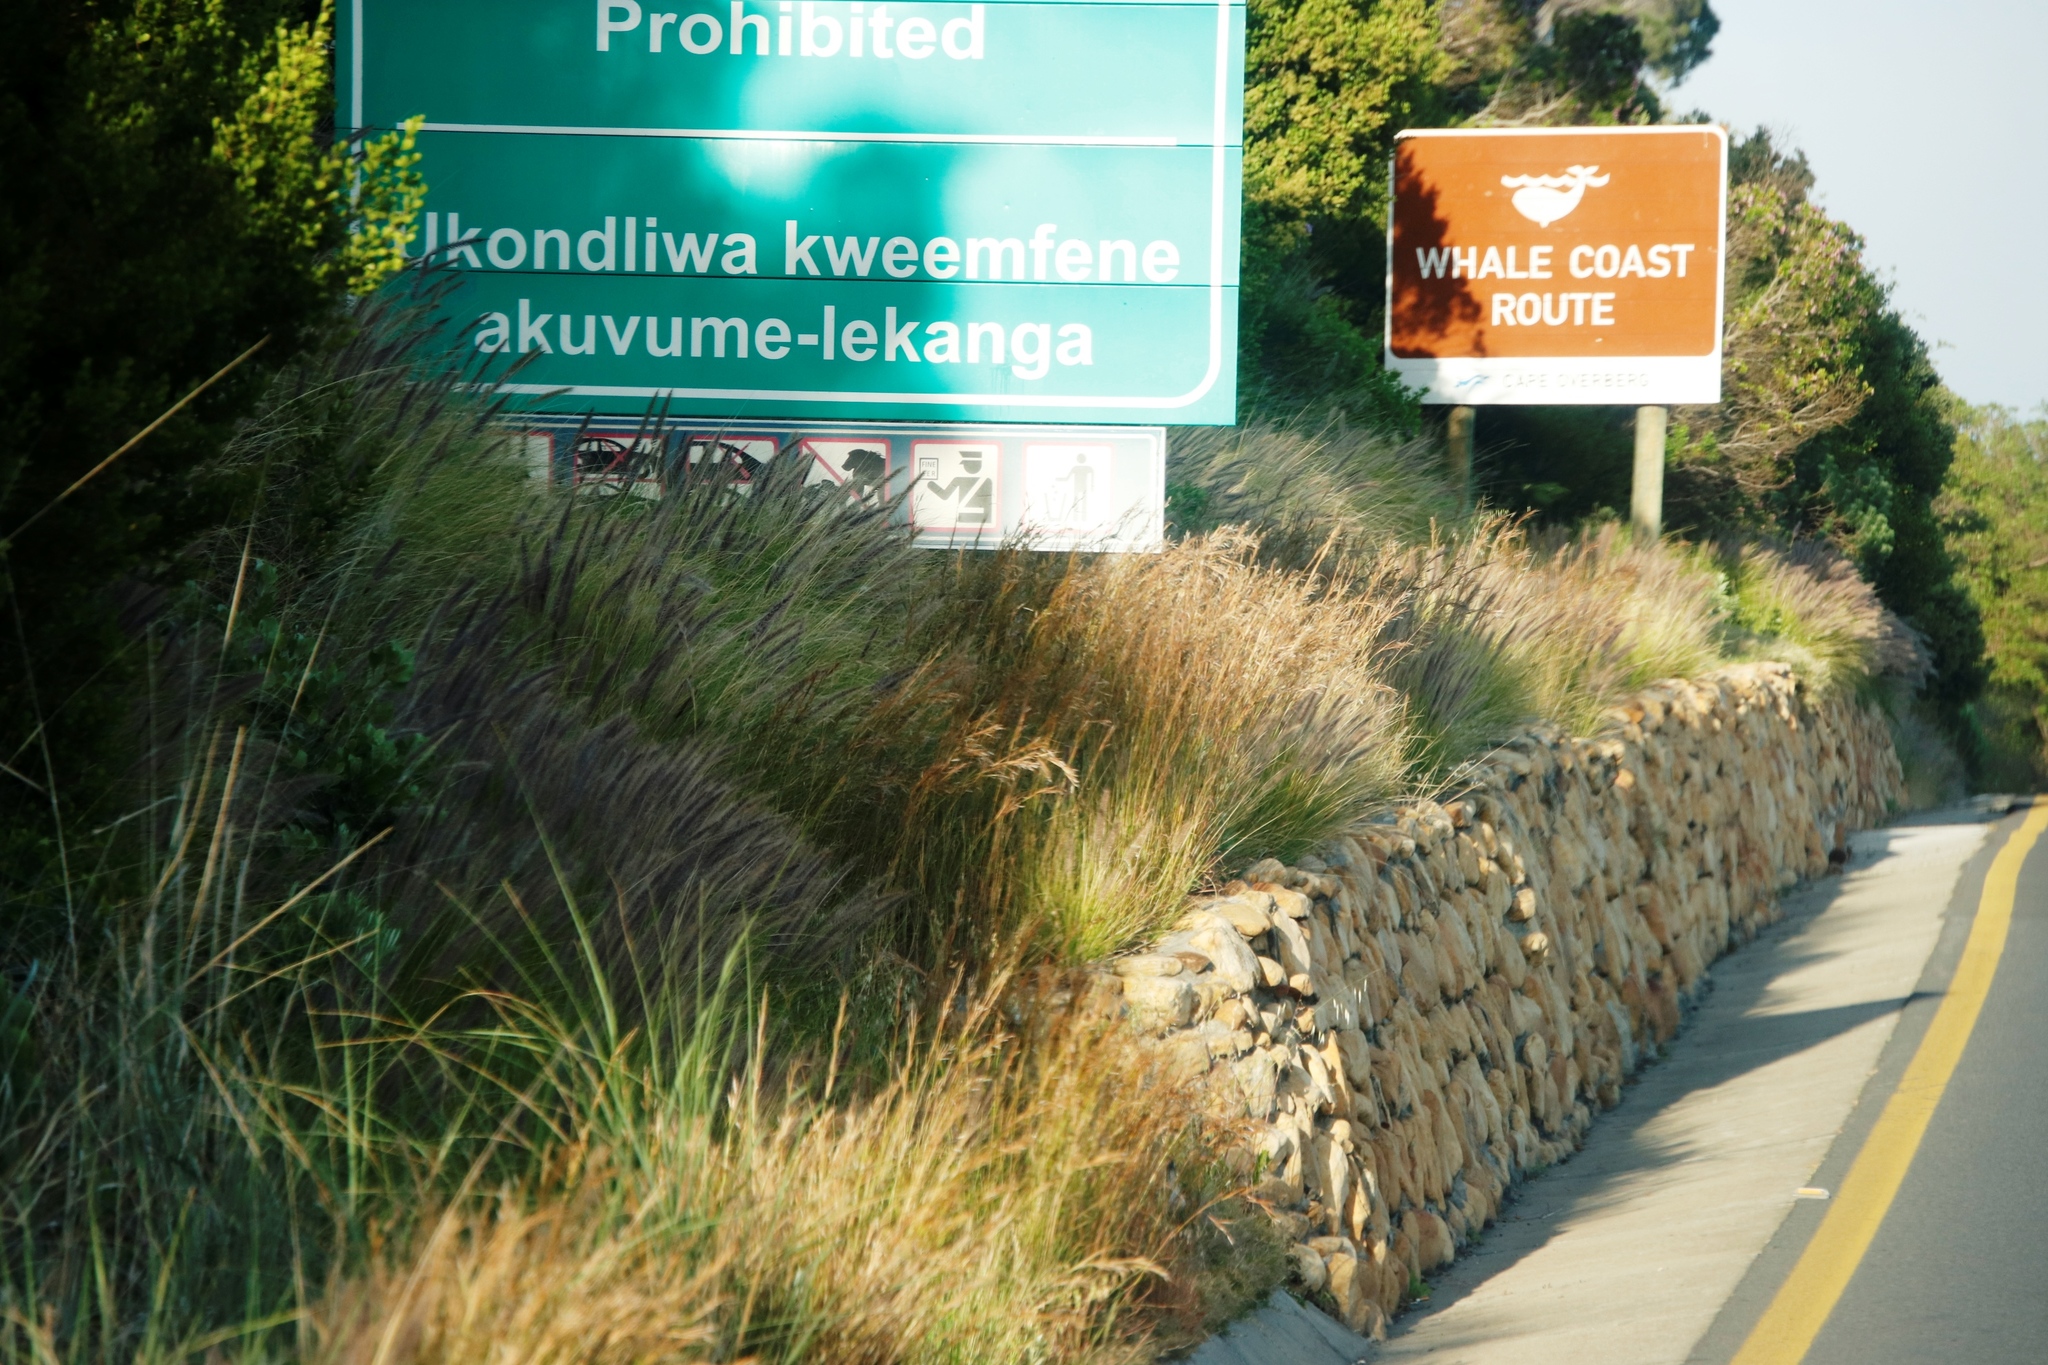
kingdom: Plantae
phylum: Tracheophyta
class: Liliopsida
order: Poales
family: Poaceae
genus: Hyparrhenia
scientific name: Hyparrhenia hirta
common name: Thatching grass
